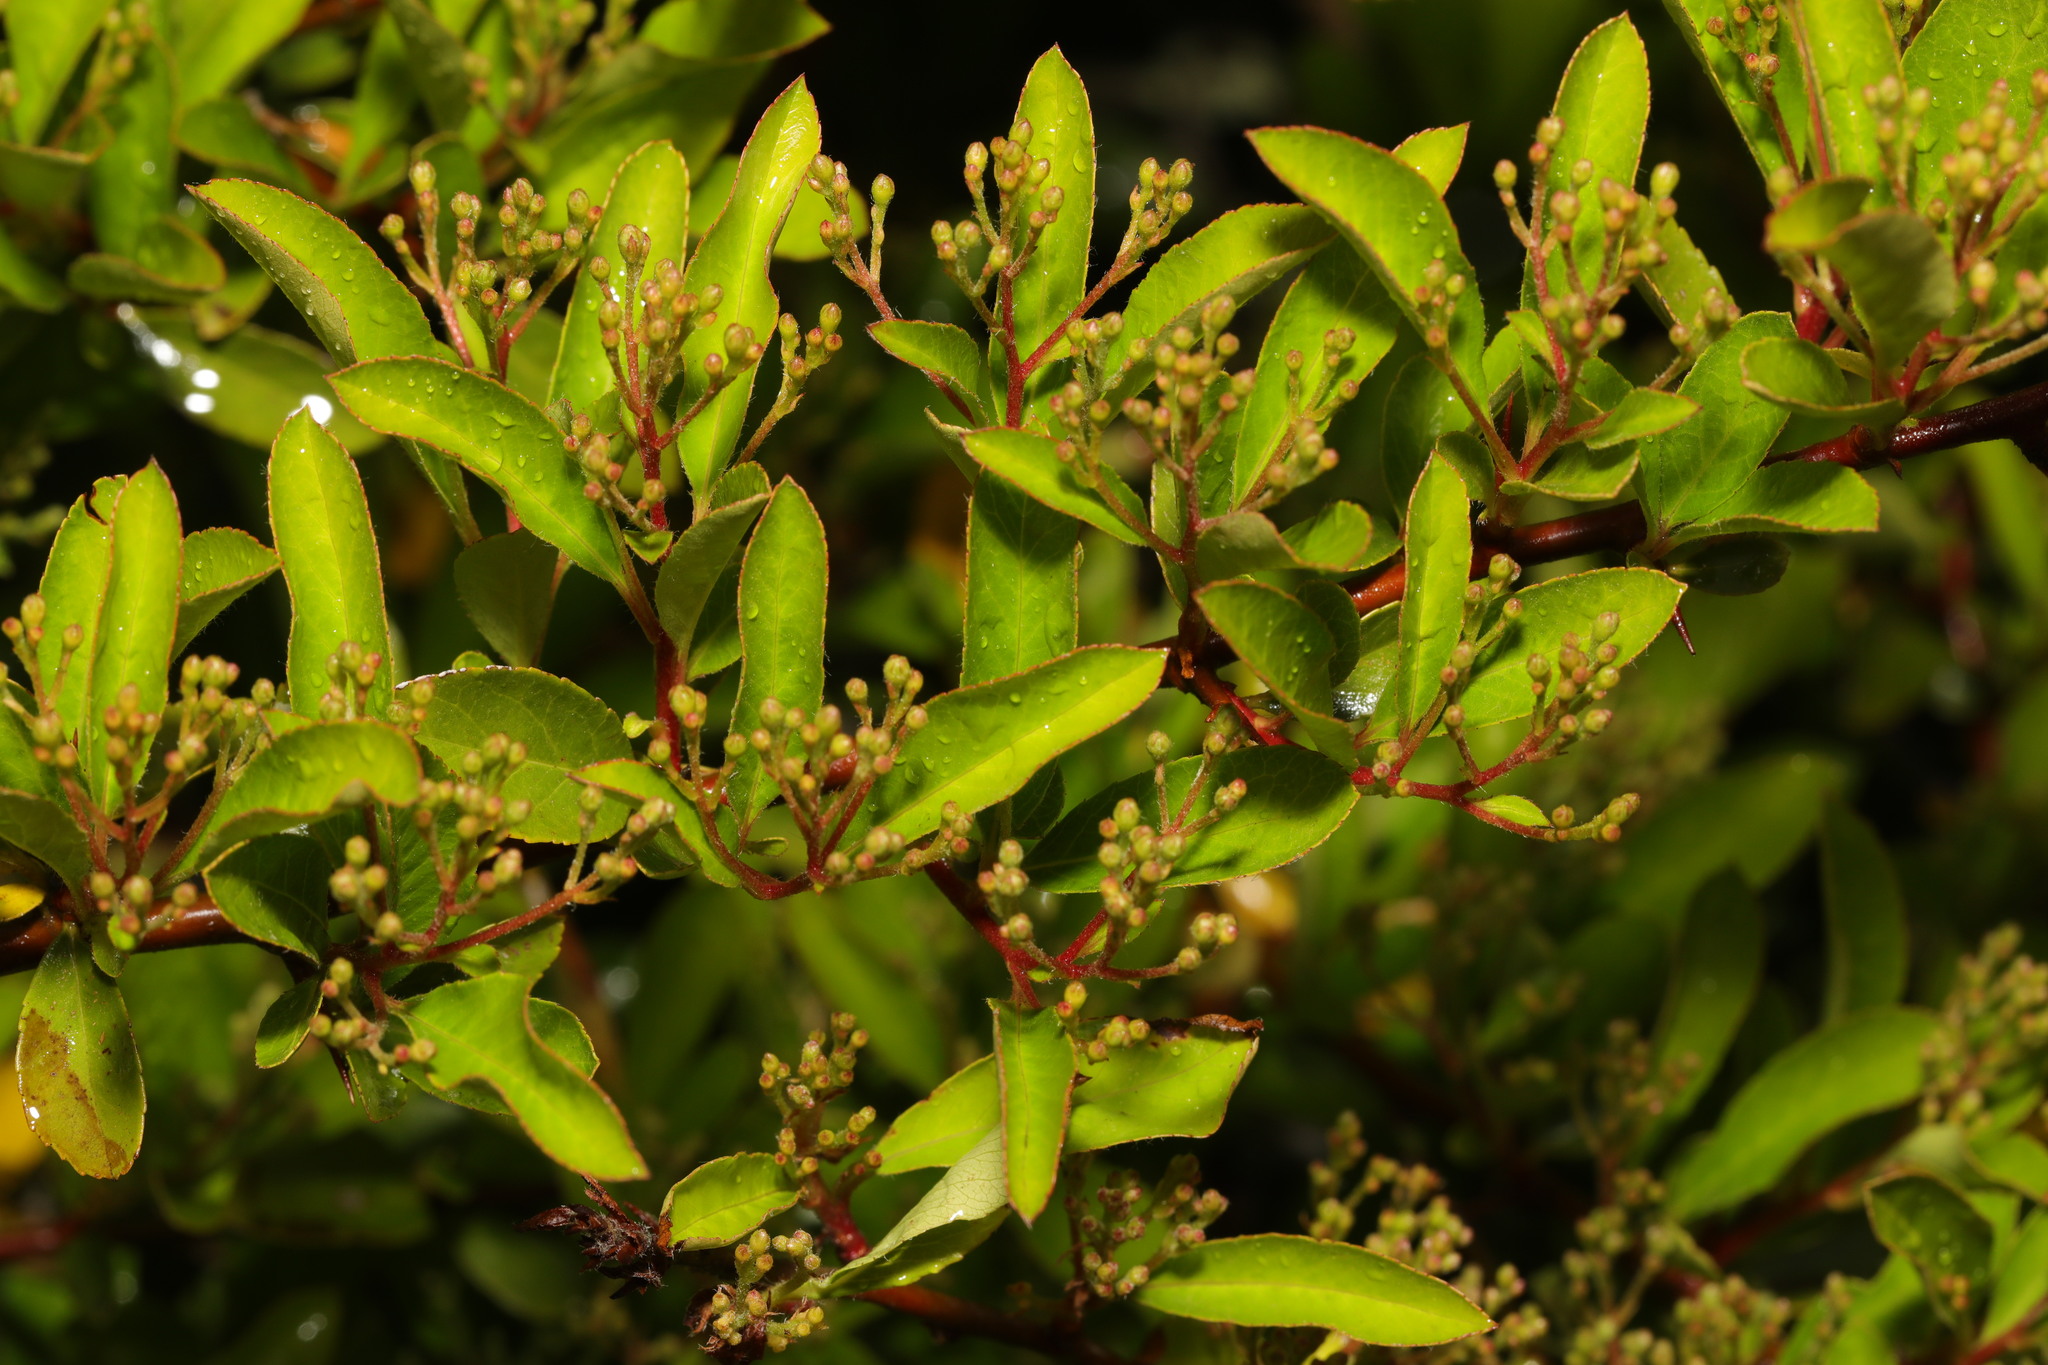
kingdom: Plantae
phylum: Tracheophyta
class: Magnoliopsida
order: Rosales
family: Rosaceae
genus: Pyracantha
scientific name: Pyracantha coccinea
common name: Firethorn
